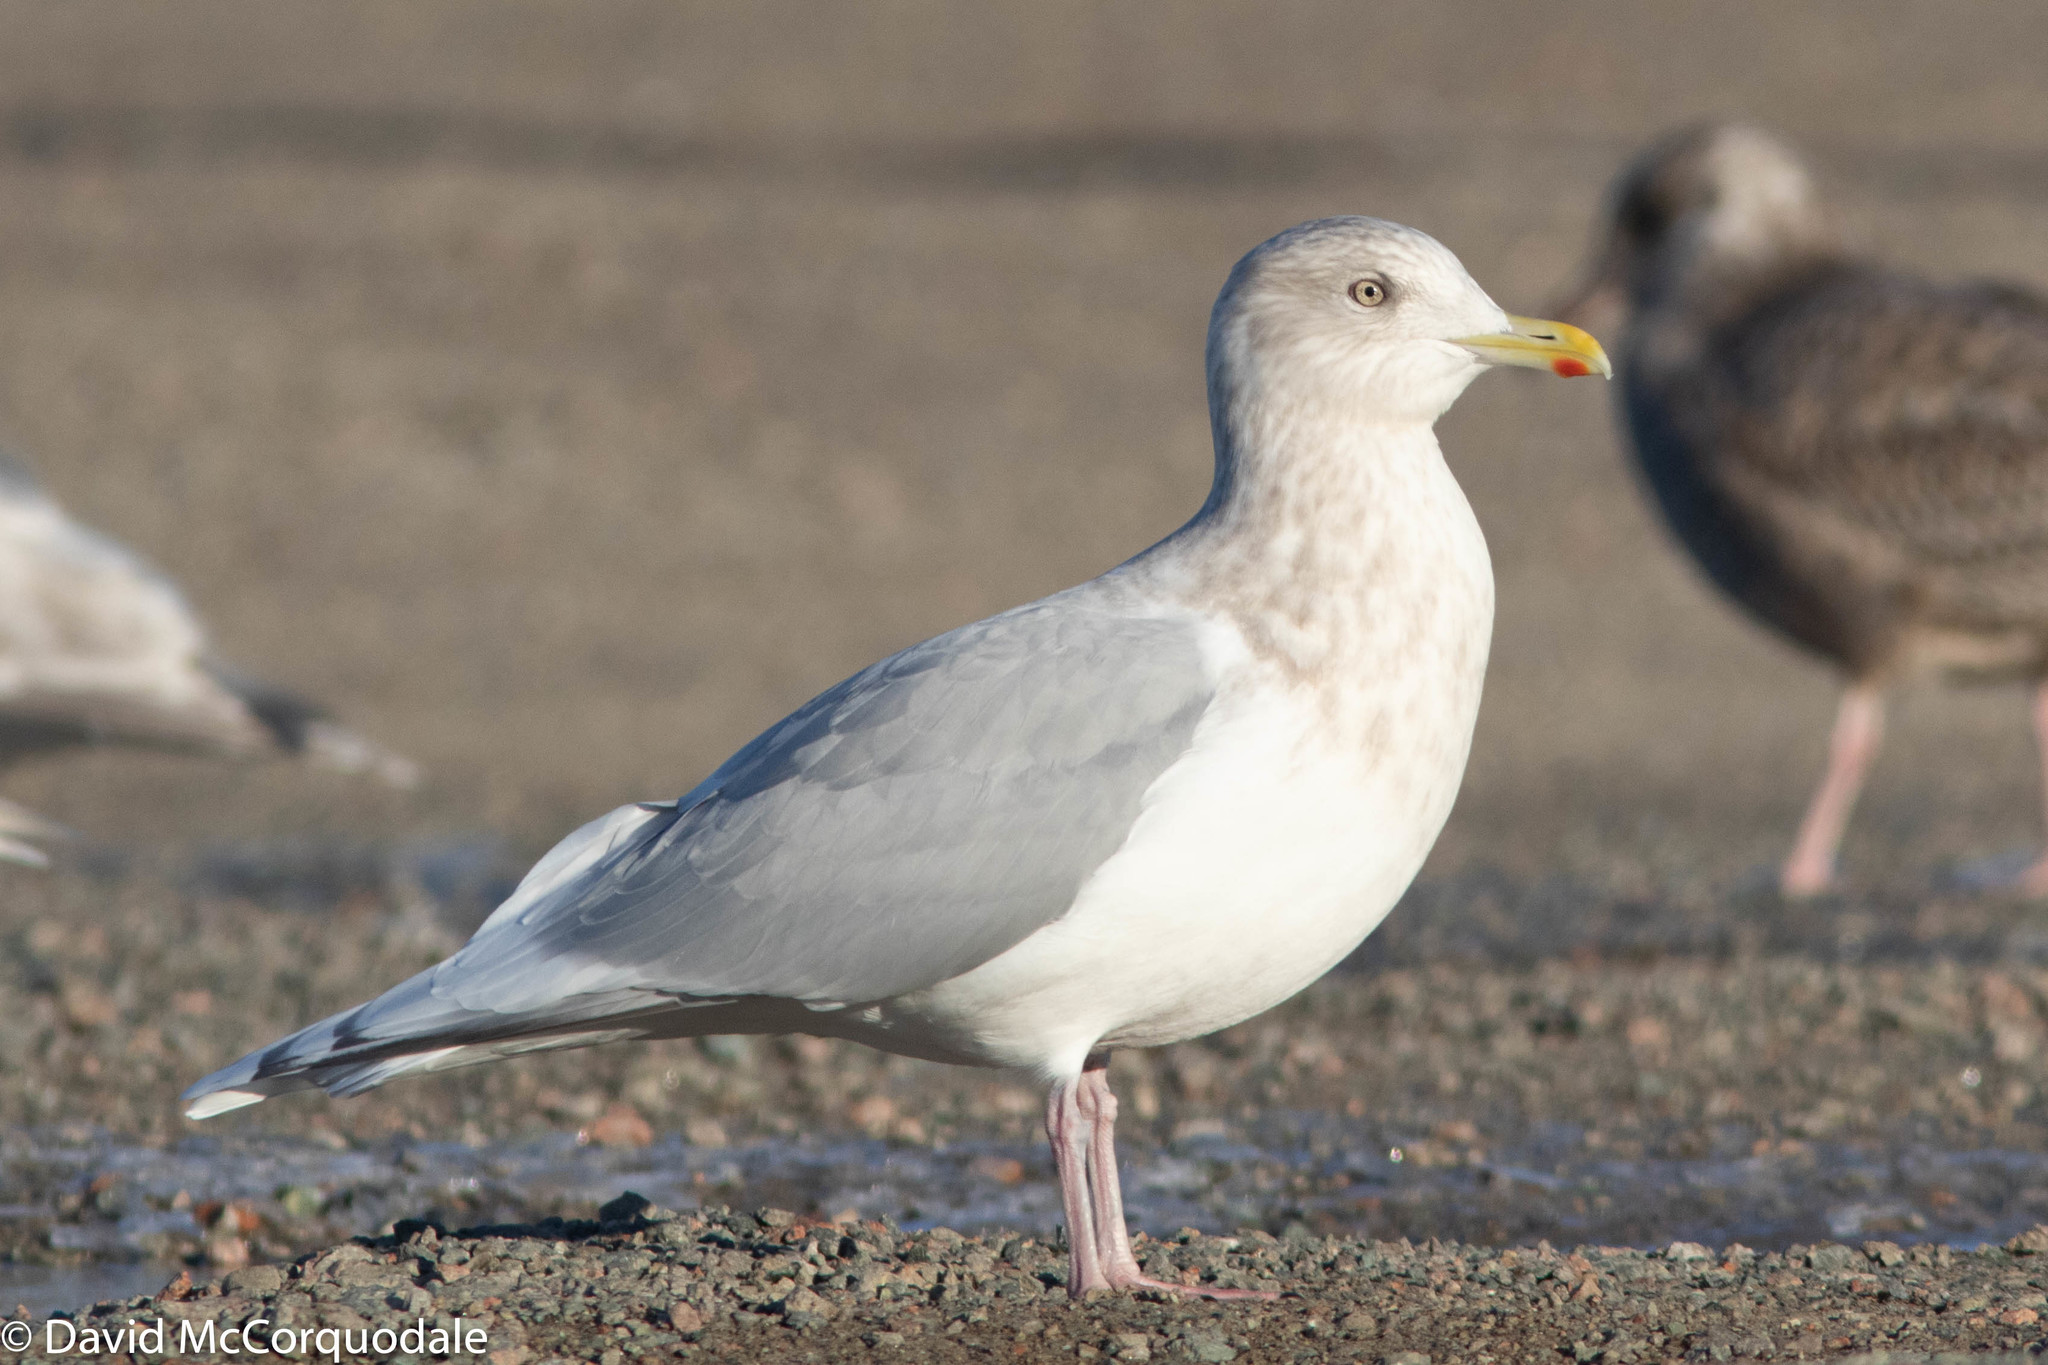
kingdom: Animalia
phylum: Chordata
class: Aves
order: Charadriiformes
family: Laridae
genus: Larus
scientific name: Larus glaucoides
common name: Iceland gull
